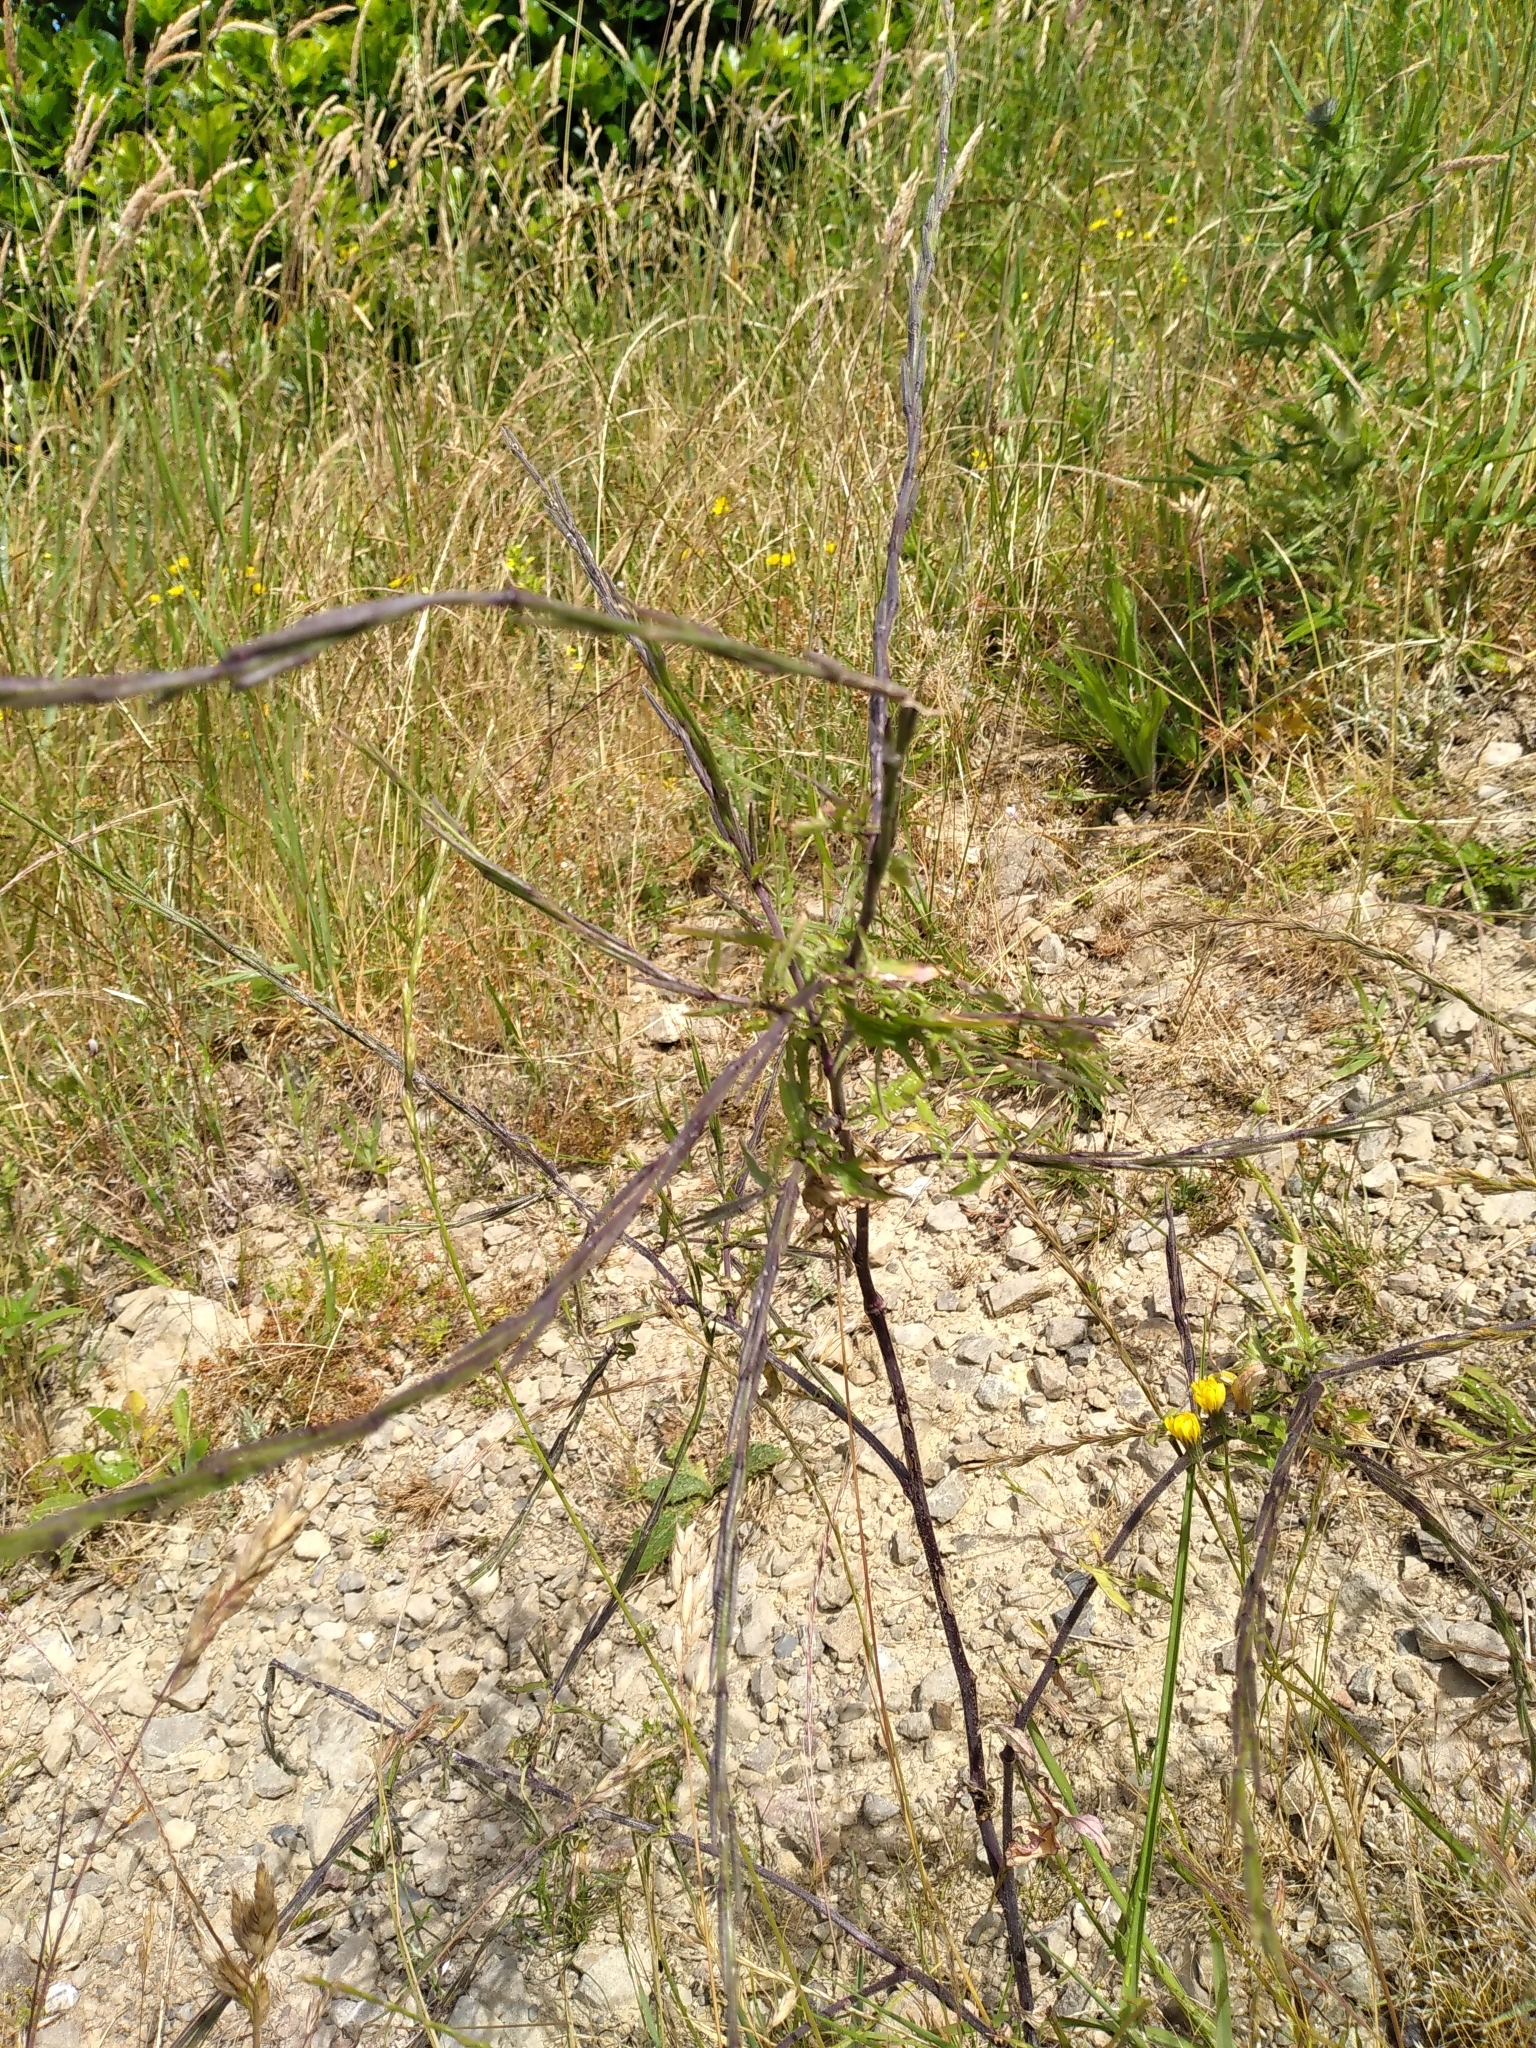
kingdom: Plantae
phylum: Tracheophyta
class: Magnoliopsida
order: Brassicales
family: Brassicaceae
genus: Sisymbrium
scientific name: Sisymbrium officinale
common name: Hedge mustard
